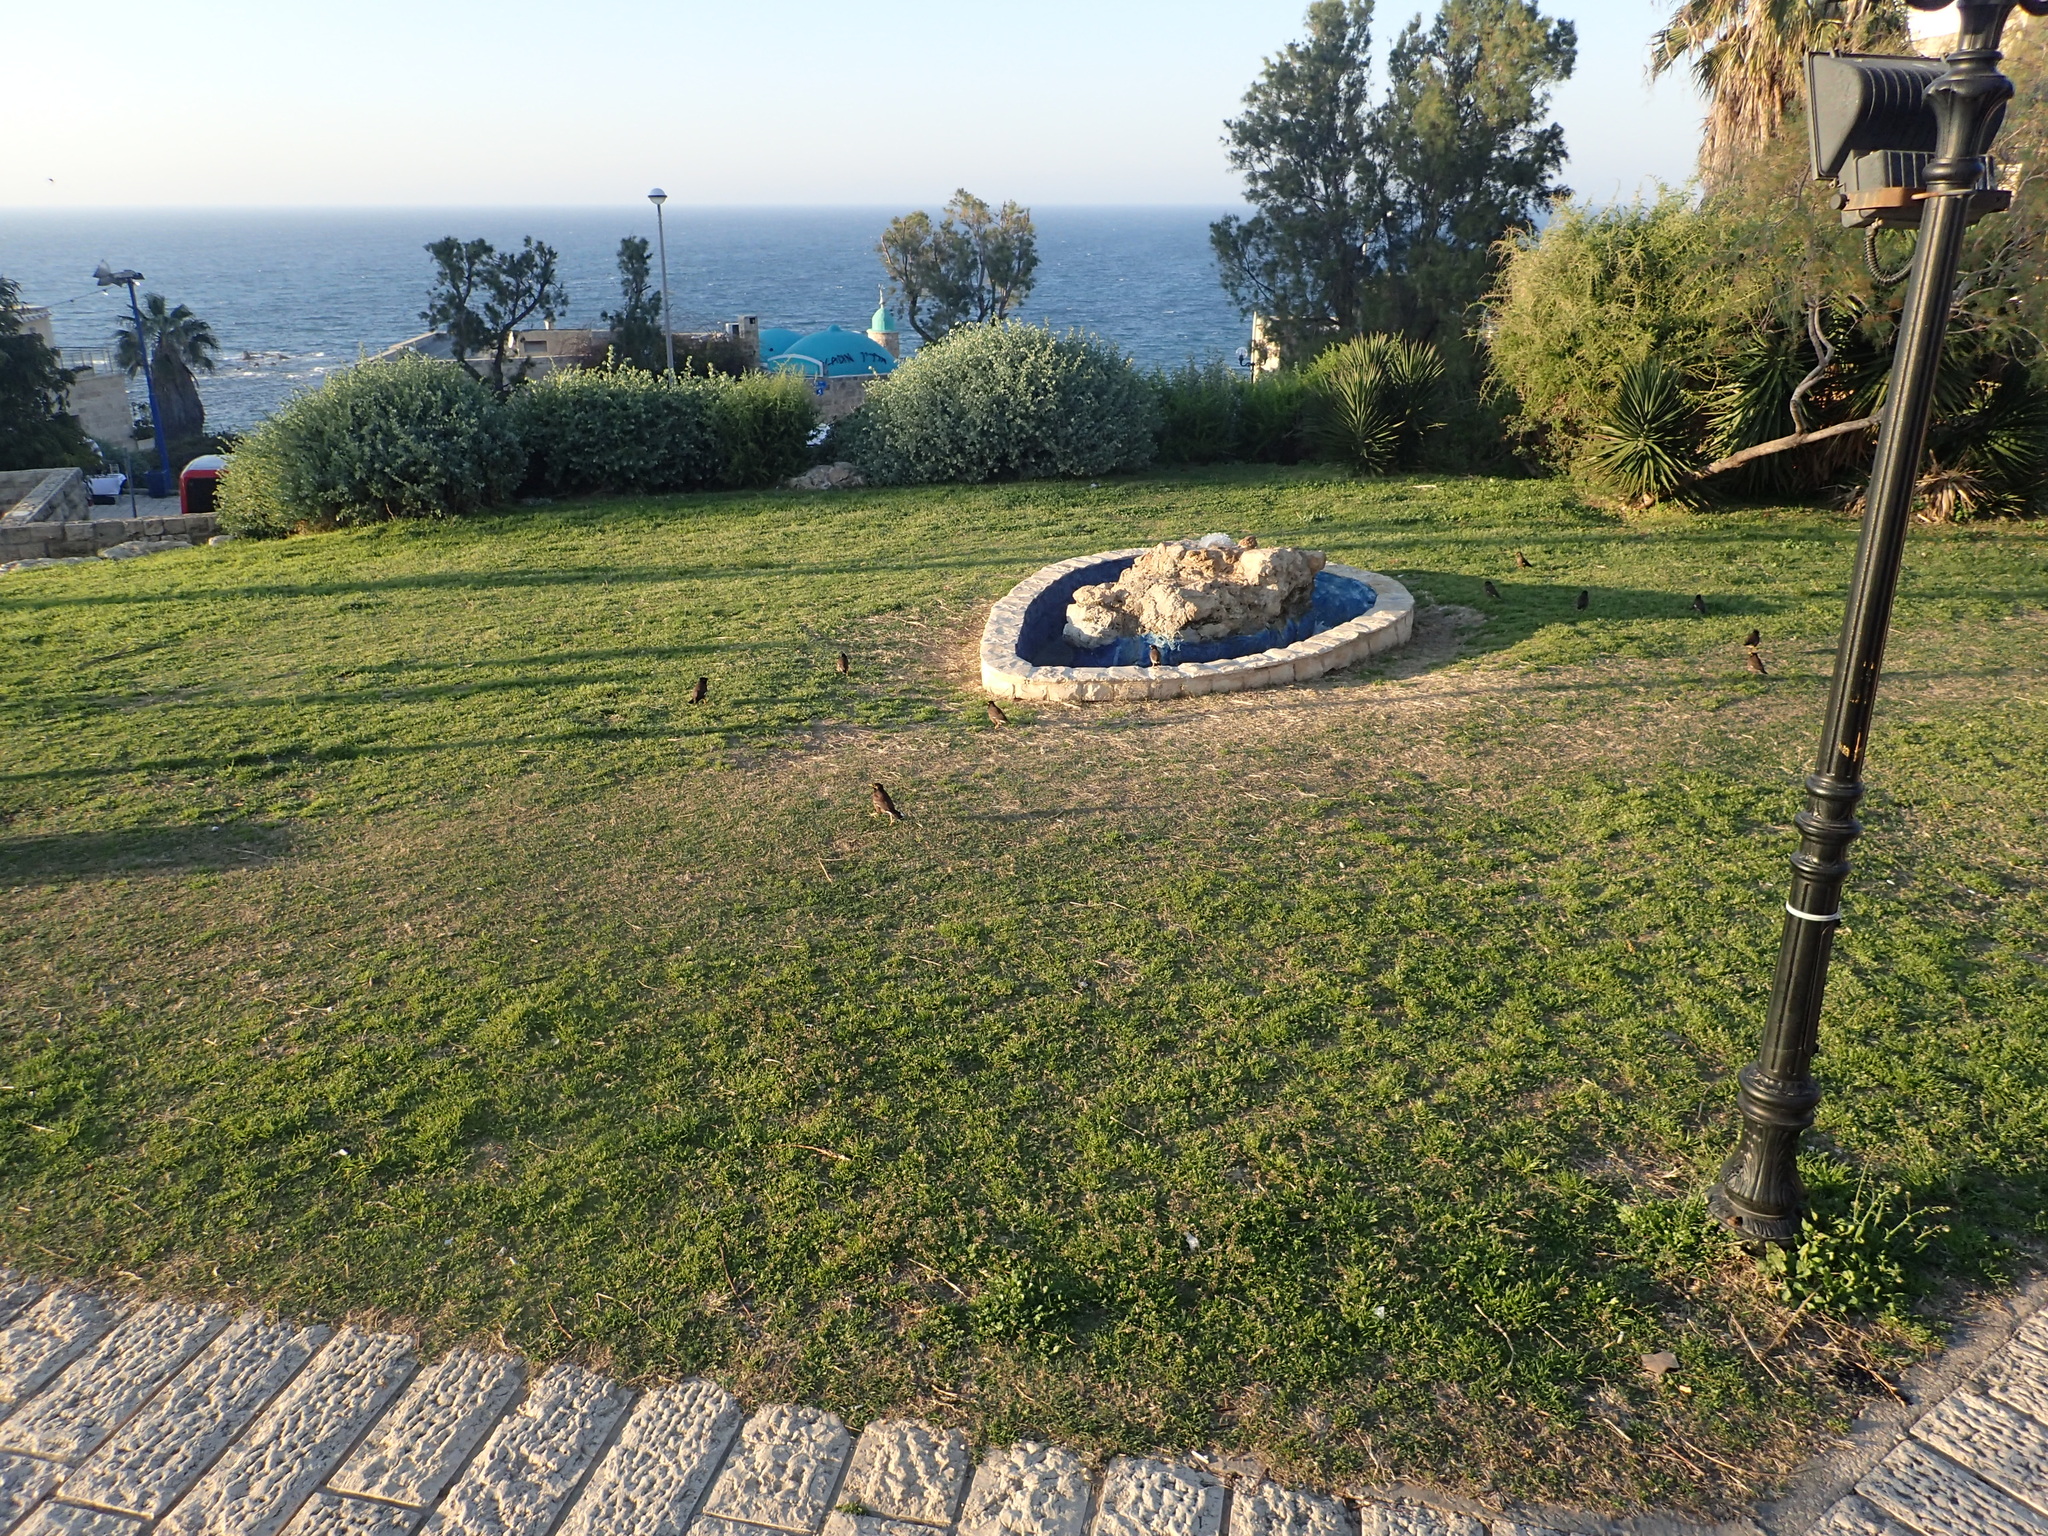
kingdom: Animalia
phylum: Chordata
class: Aves
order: Passeriformes
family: Sturnidae
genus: Acridotheres
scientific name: Acridotheres tristis
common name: Common myna
